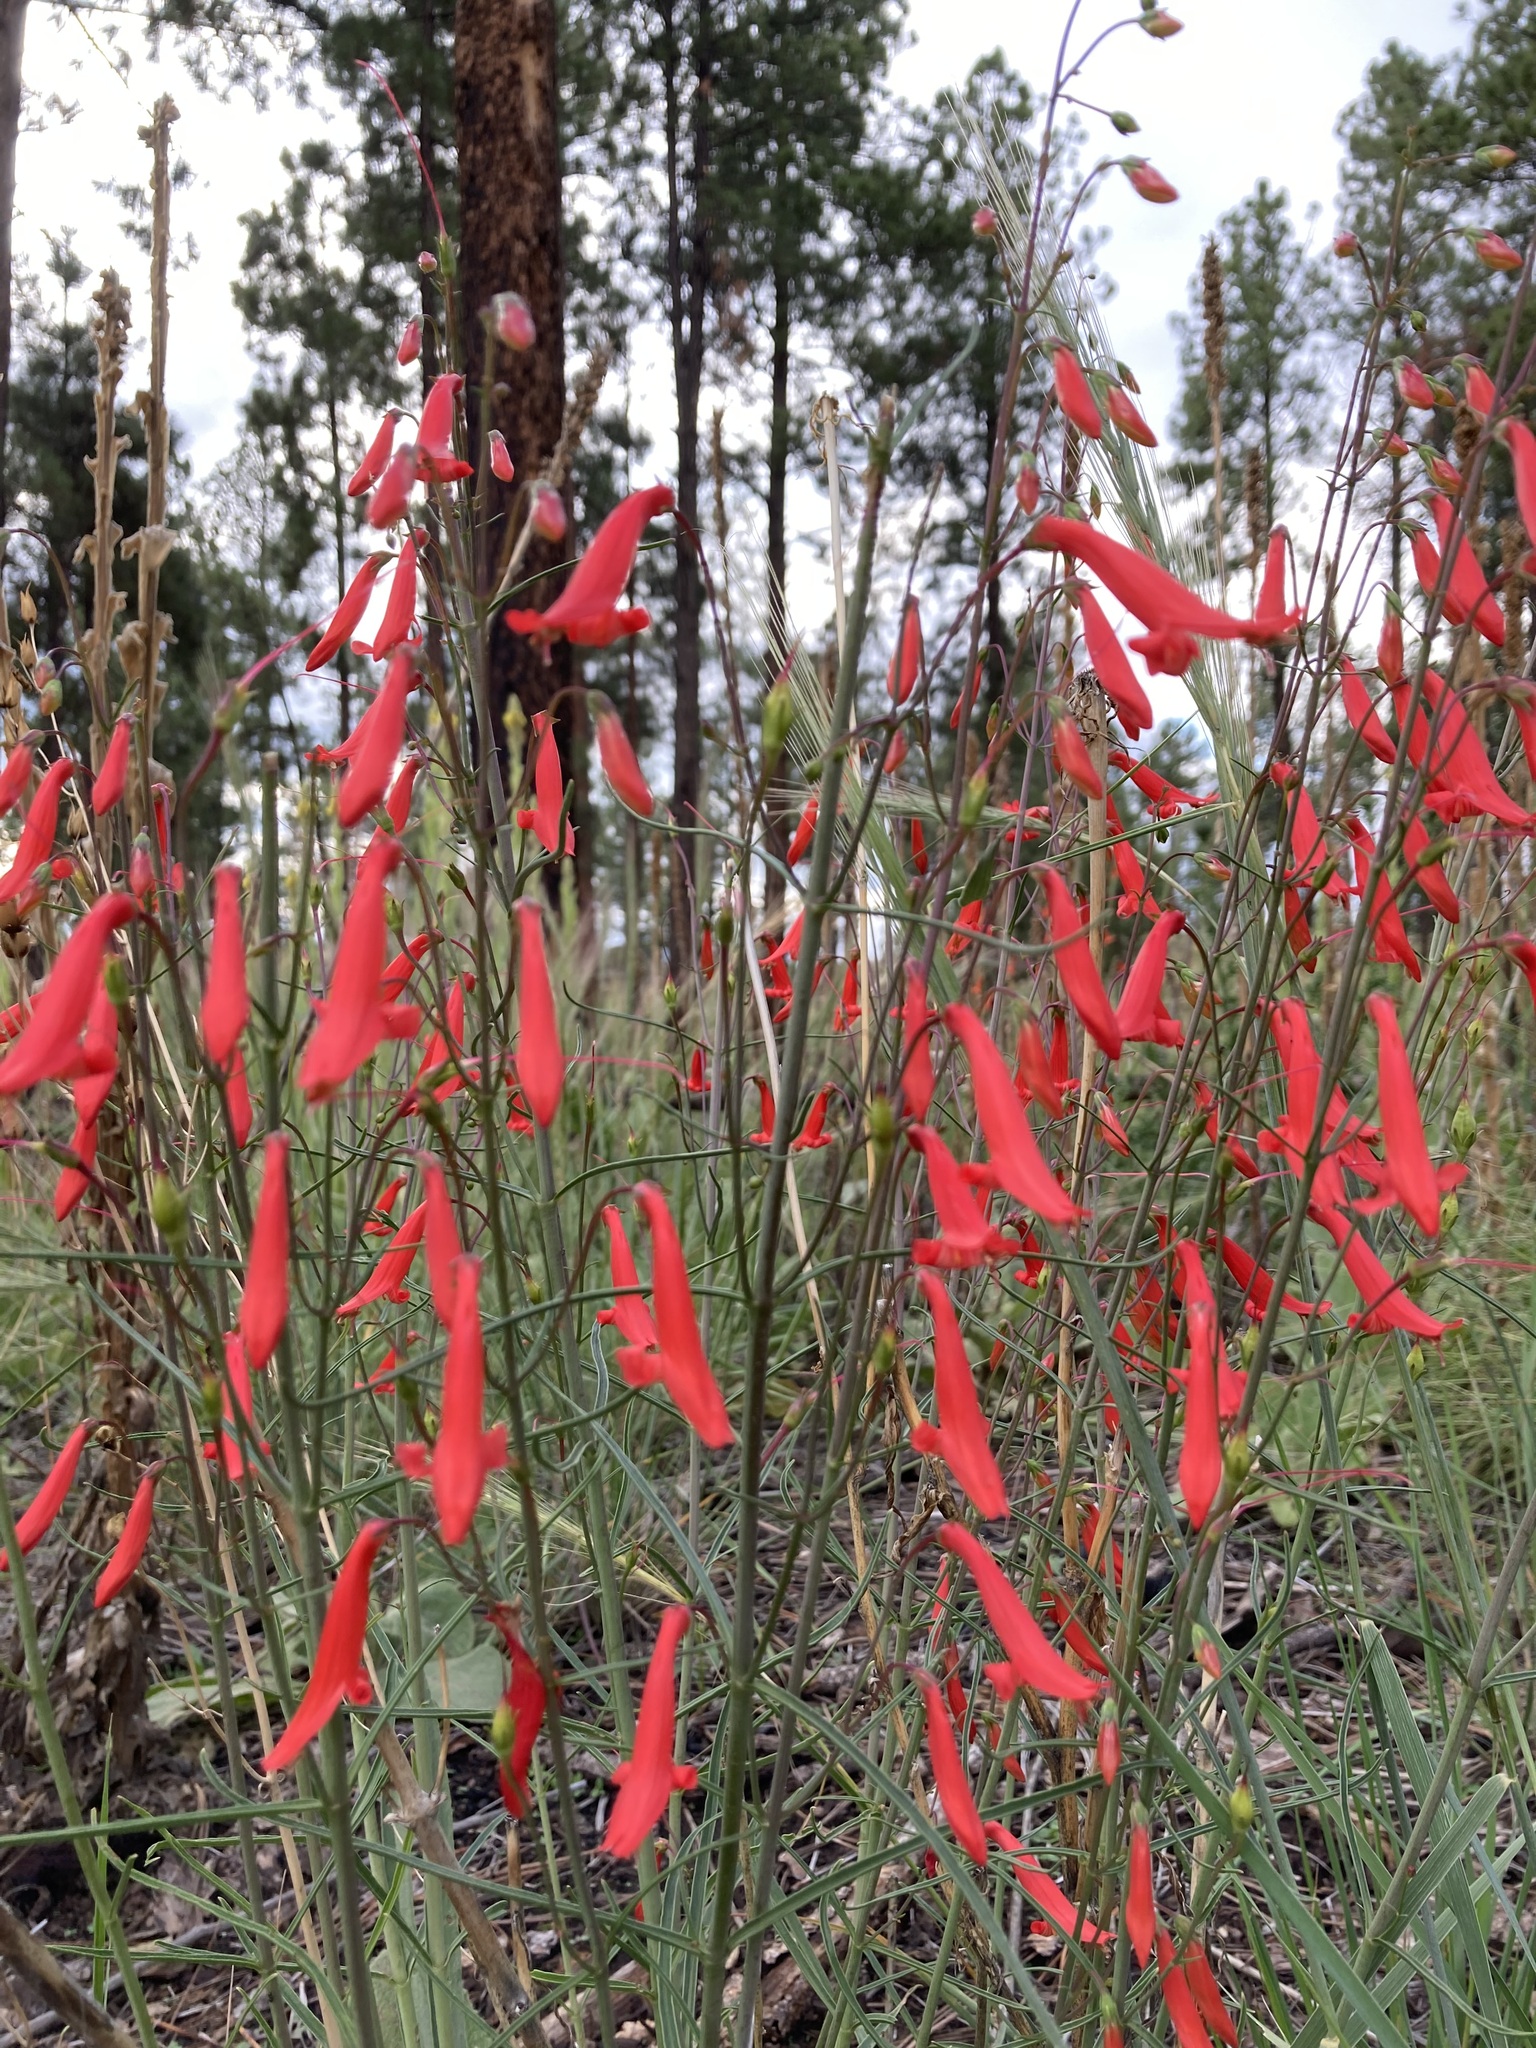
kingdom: Plantae
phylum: Tracheophyta
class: Magnoliopsida
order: Lamiales
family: Plantaginaceae
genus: Penstemon
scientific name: Penstemon barbatus
